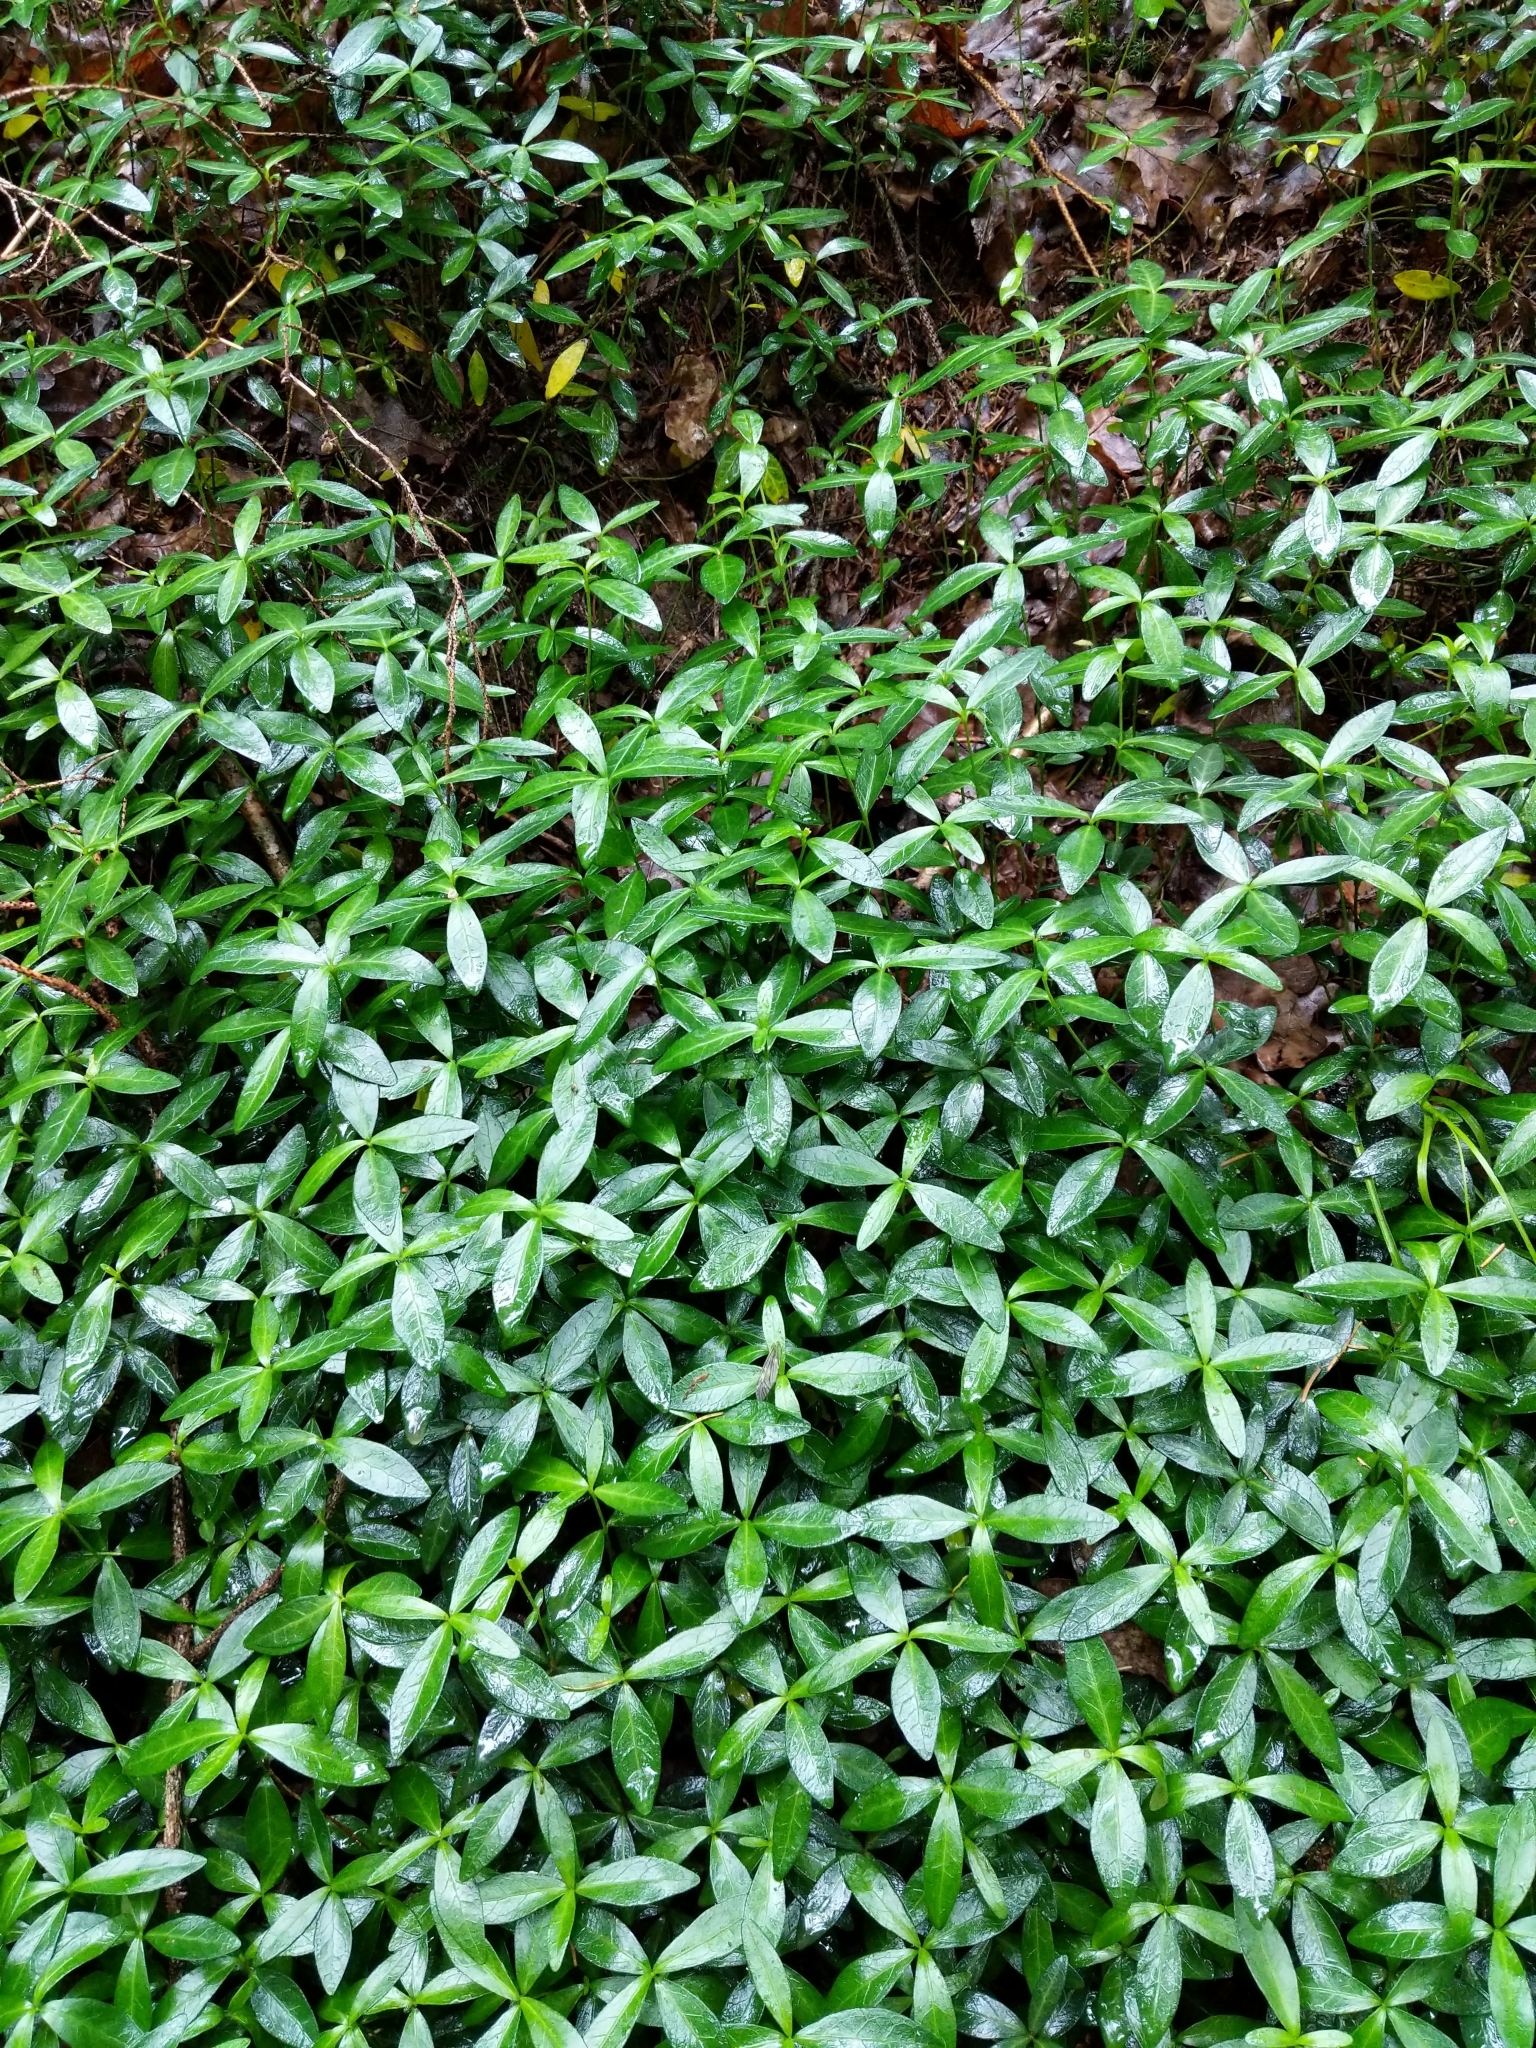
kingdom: Plantae
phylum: Tracheophyta
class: Magnoliopsida
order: Gentianales
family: Apocynaceae
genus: Vinca
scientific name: Vinca minor
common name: Lesser periwinkle
